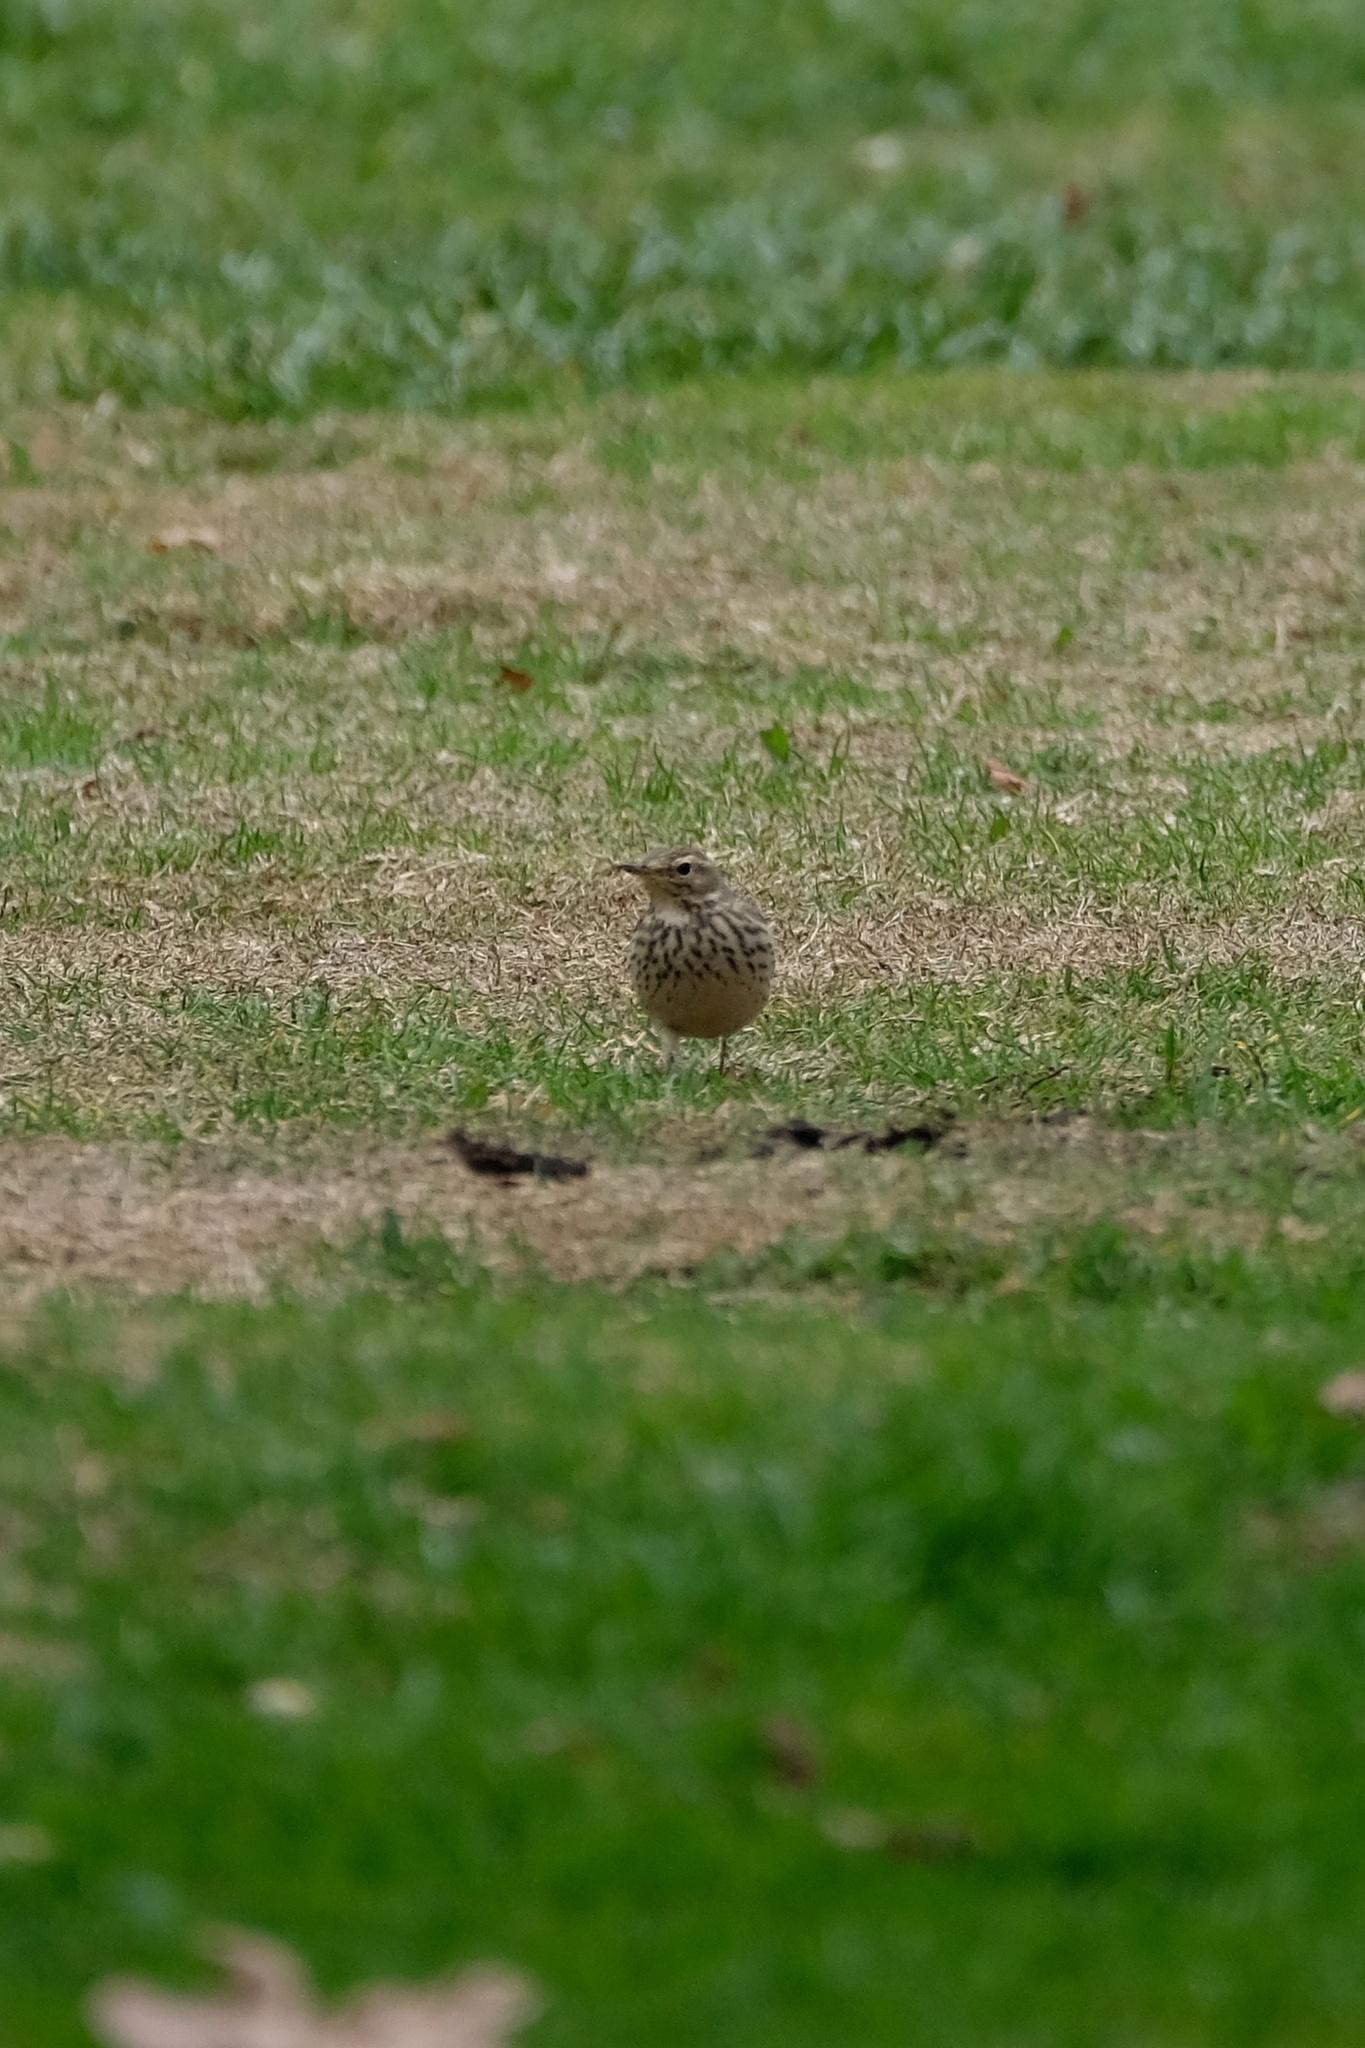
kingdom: Animalia
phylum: Chordata
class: Aves
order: Passeriformes
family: Motacillidae
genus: Anthus
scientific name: Anthus rubescens
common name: Buff-bellied pipit
